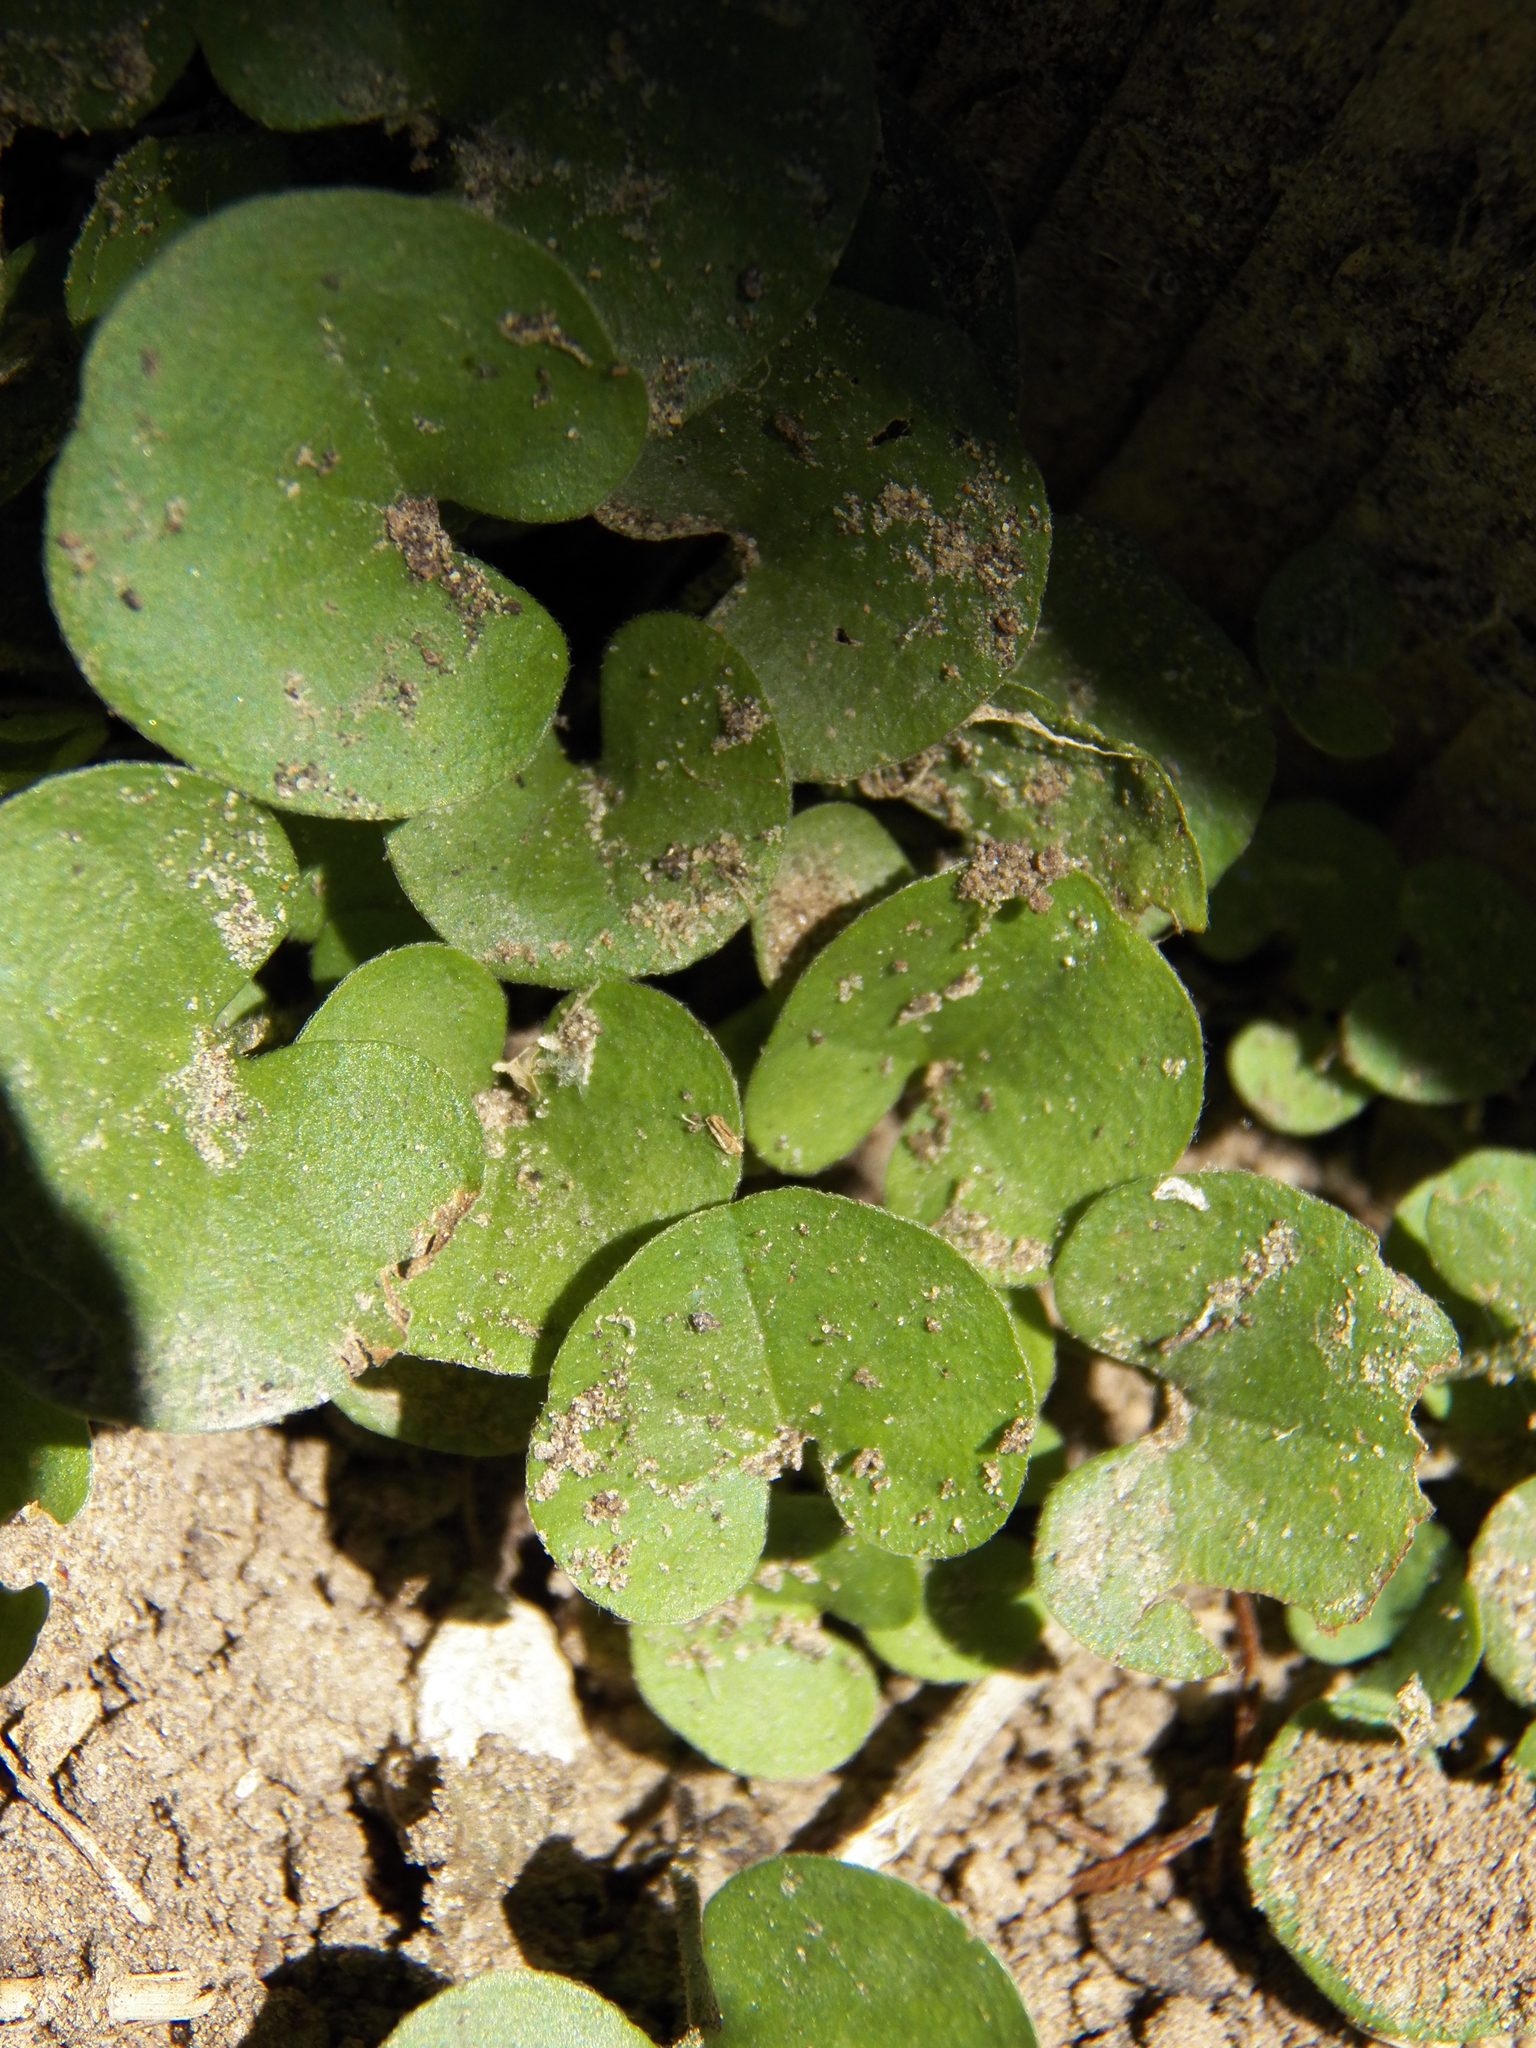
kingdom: Plantae
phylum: Tracheophyta
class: Magnoliopsida
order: Solanales
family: Convolvulaceae
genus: Dichondra
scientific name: Dichondra carolinensis
